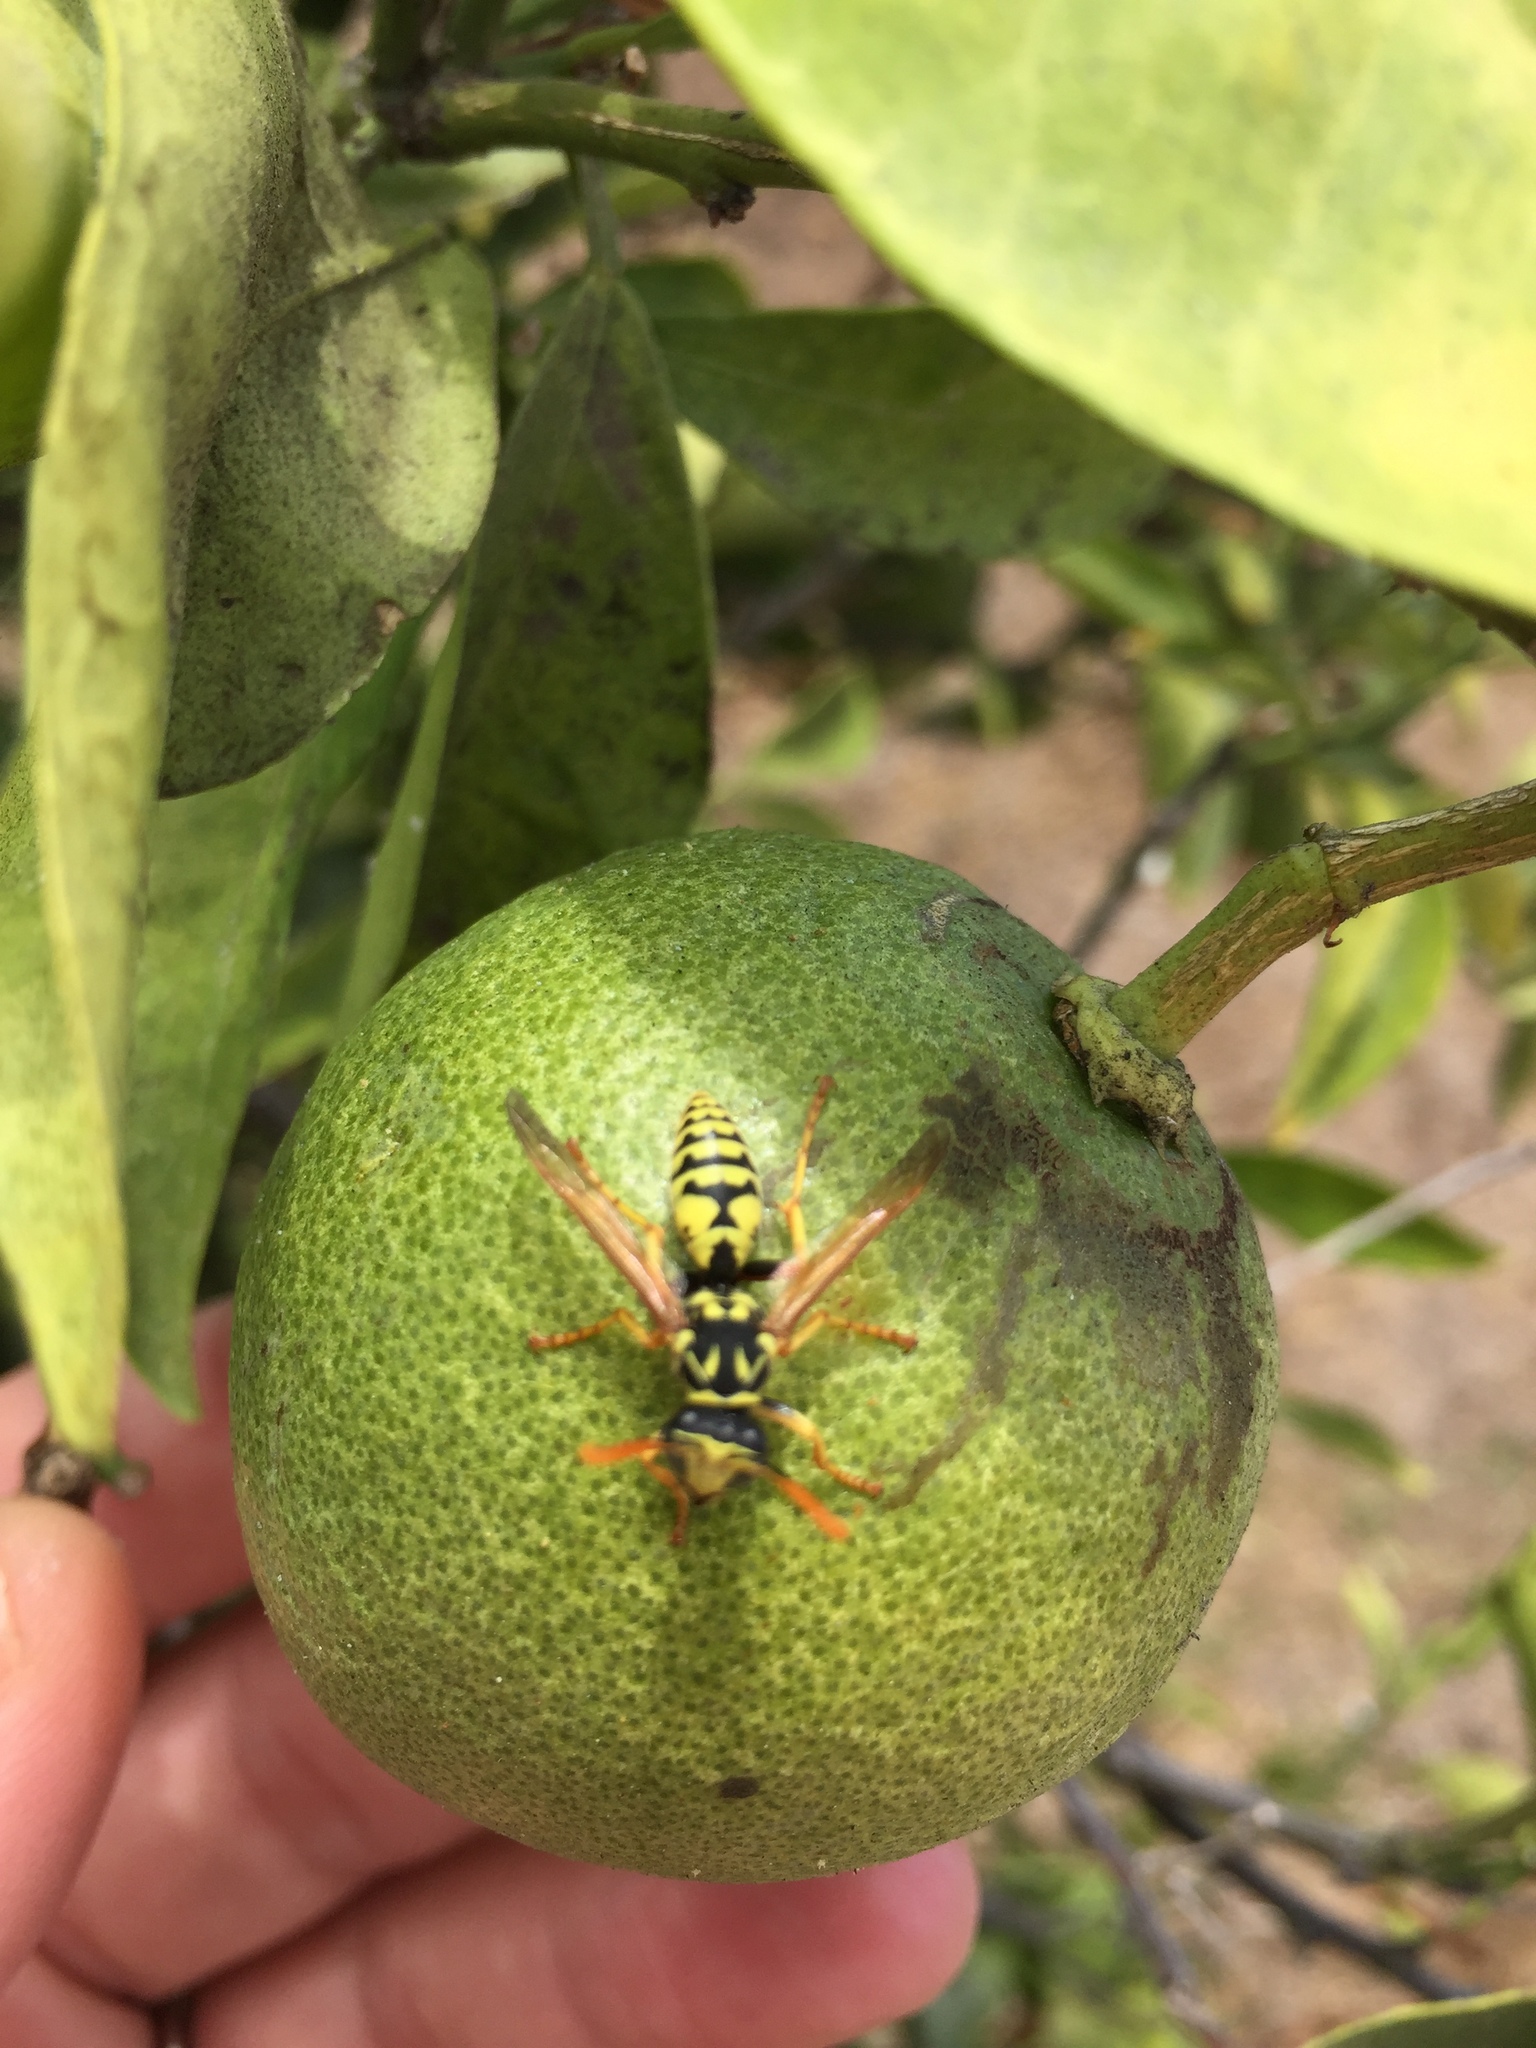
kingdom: Animalia
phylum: Arthropoda
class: Insecta
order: Hymenoptera
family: Eumenidae
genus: Polistes
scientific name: Polistes dominula
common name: Paper wasp
